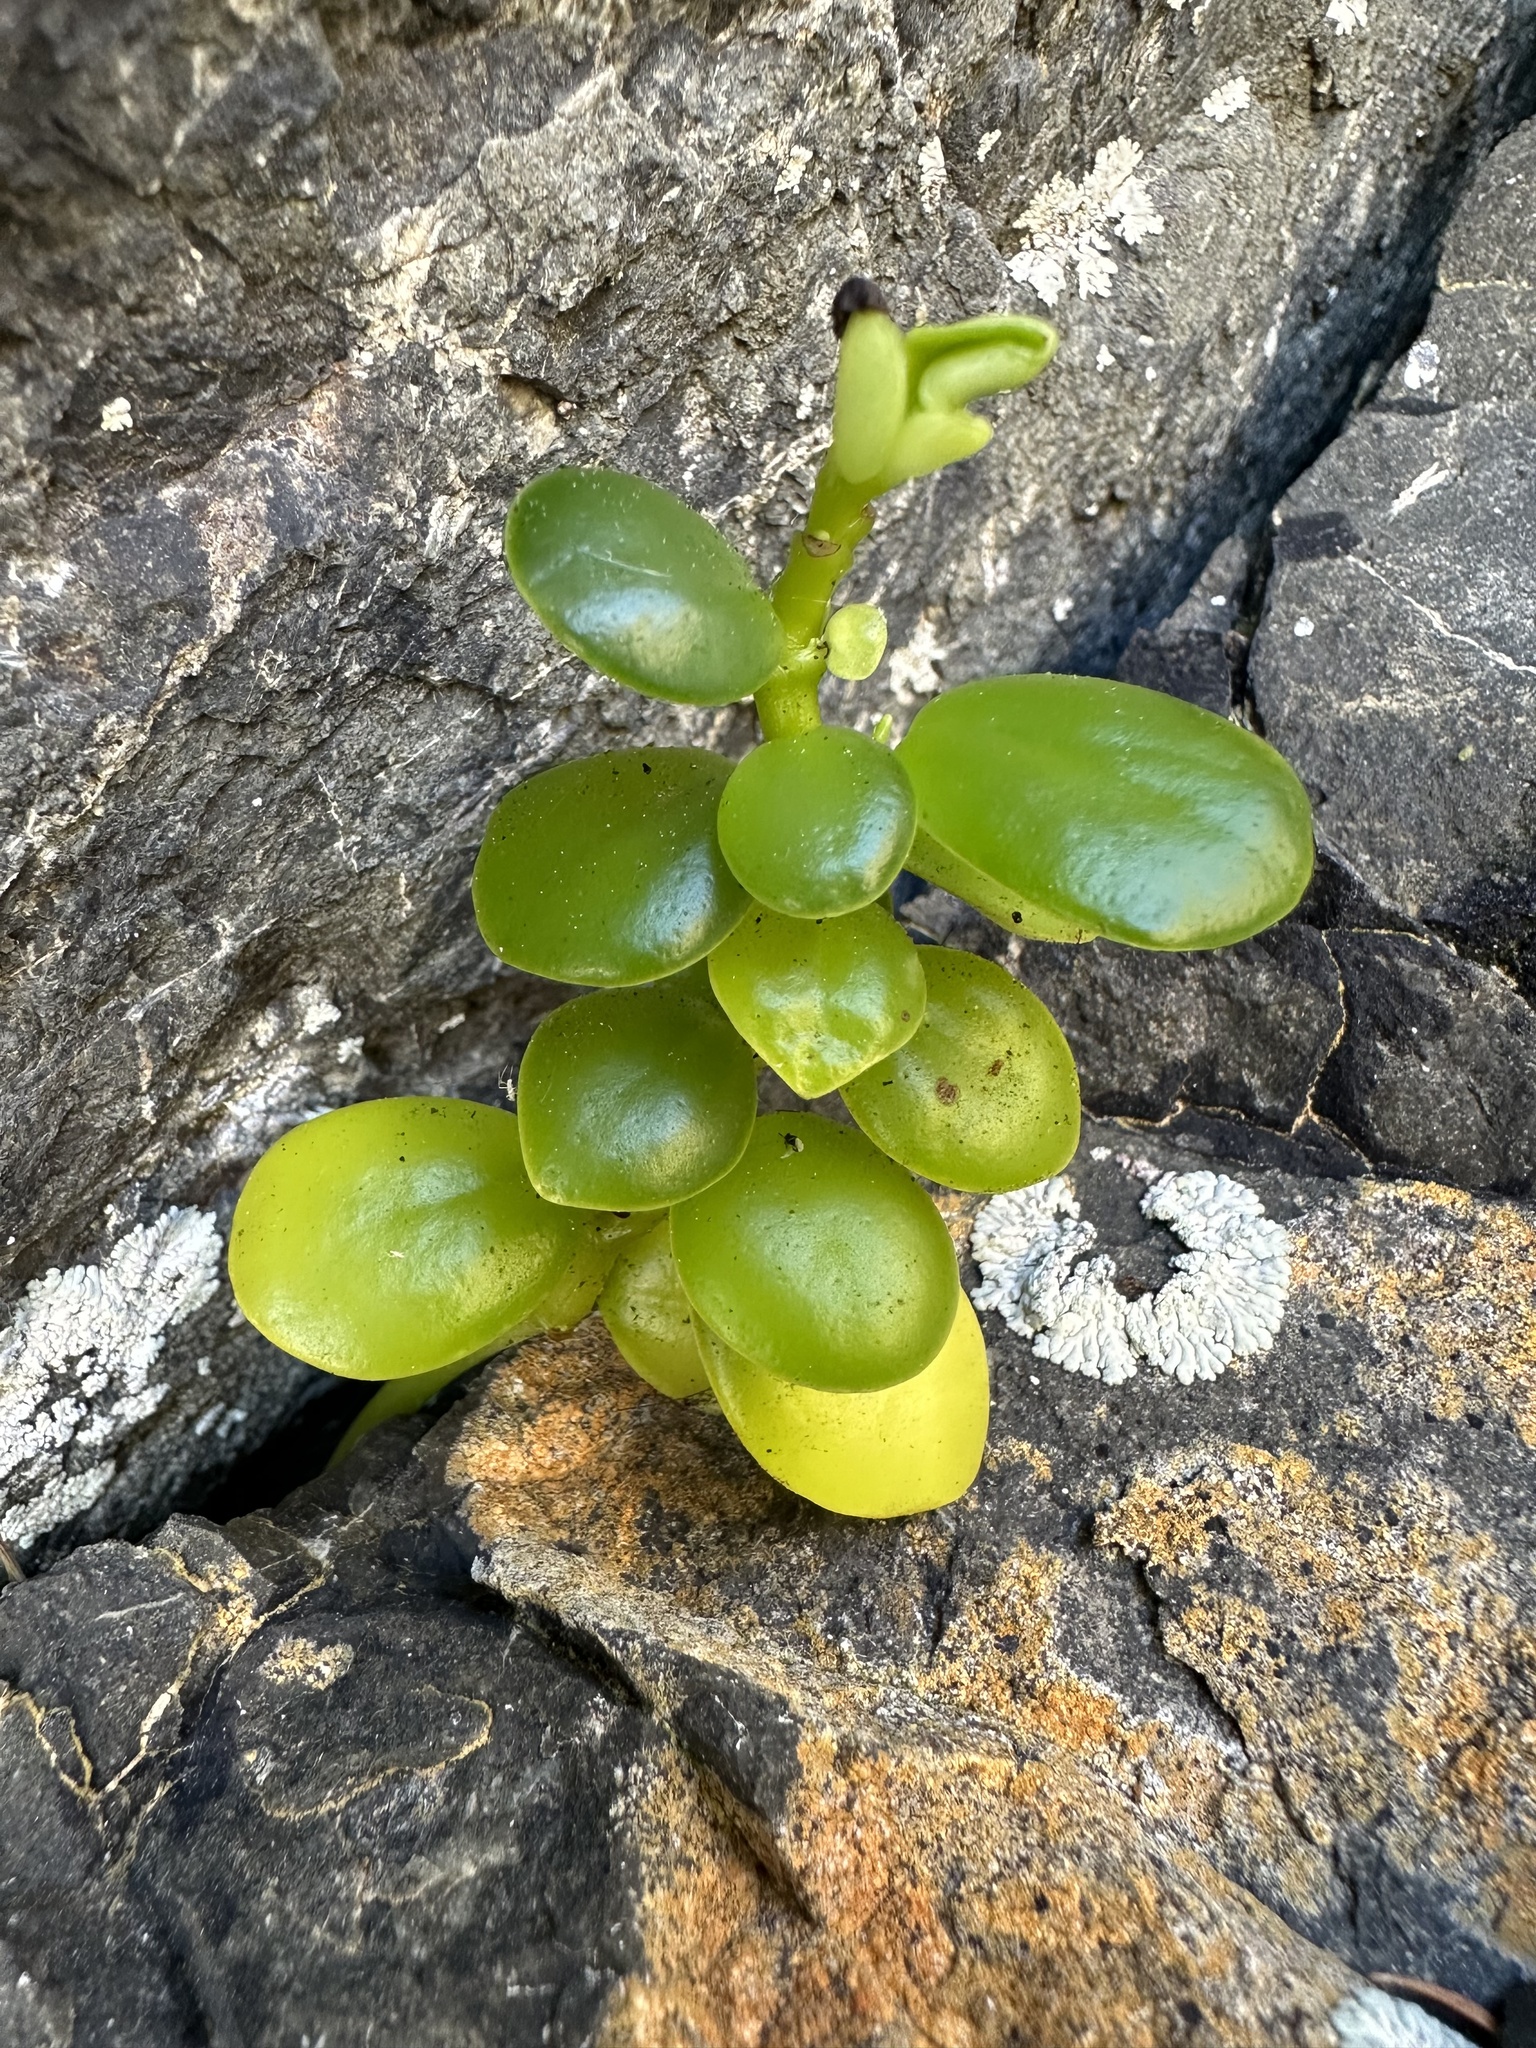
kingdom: Plantae
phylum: Tracheophyta
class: Magnoliopsida
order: Piperales
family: Piperaceae
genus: Peperomia
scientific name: Peperomia urvilleana
